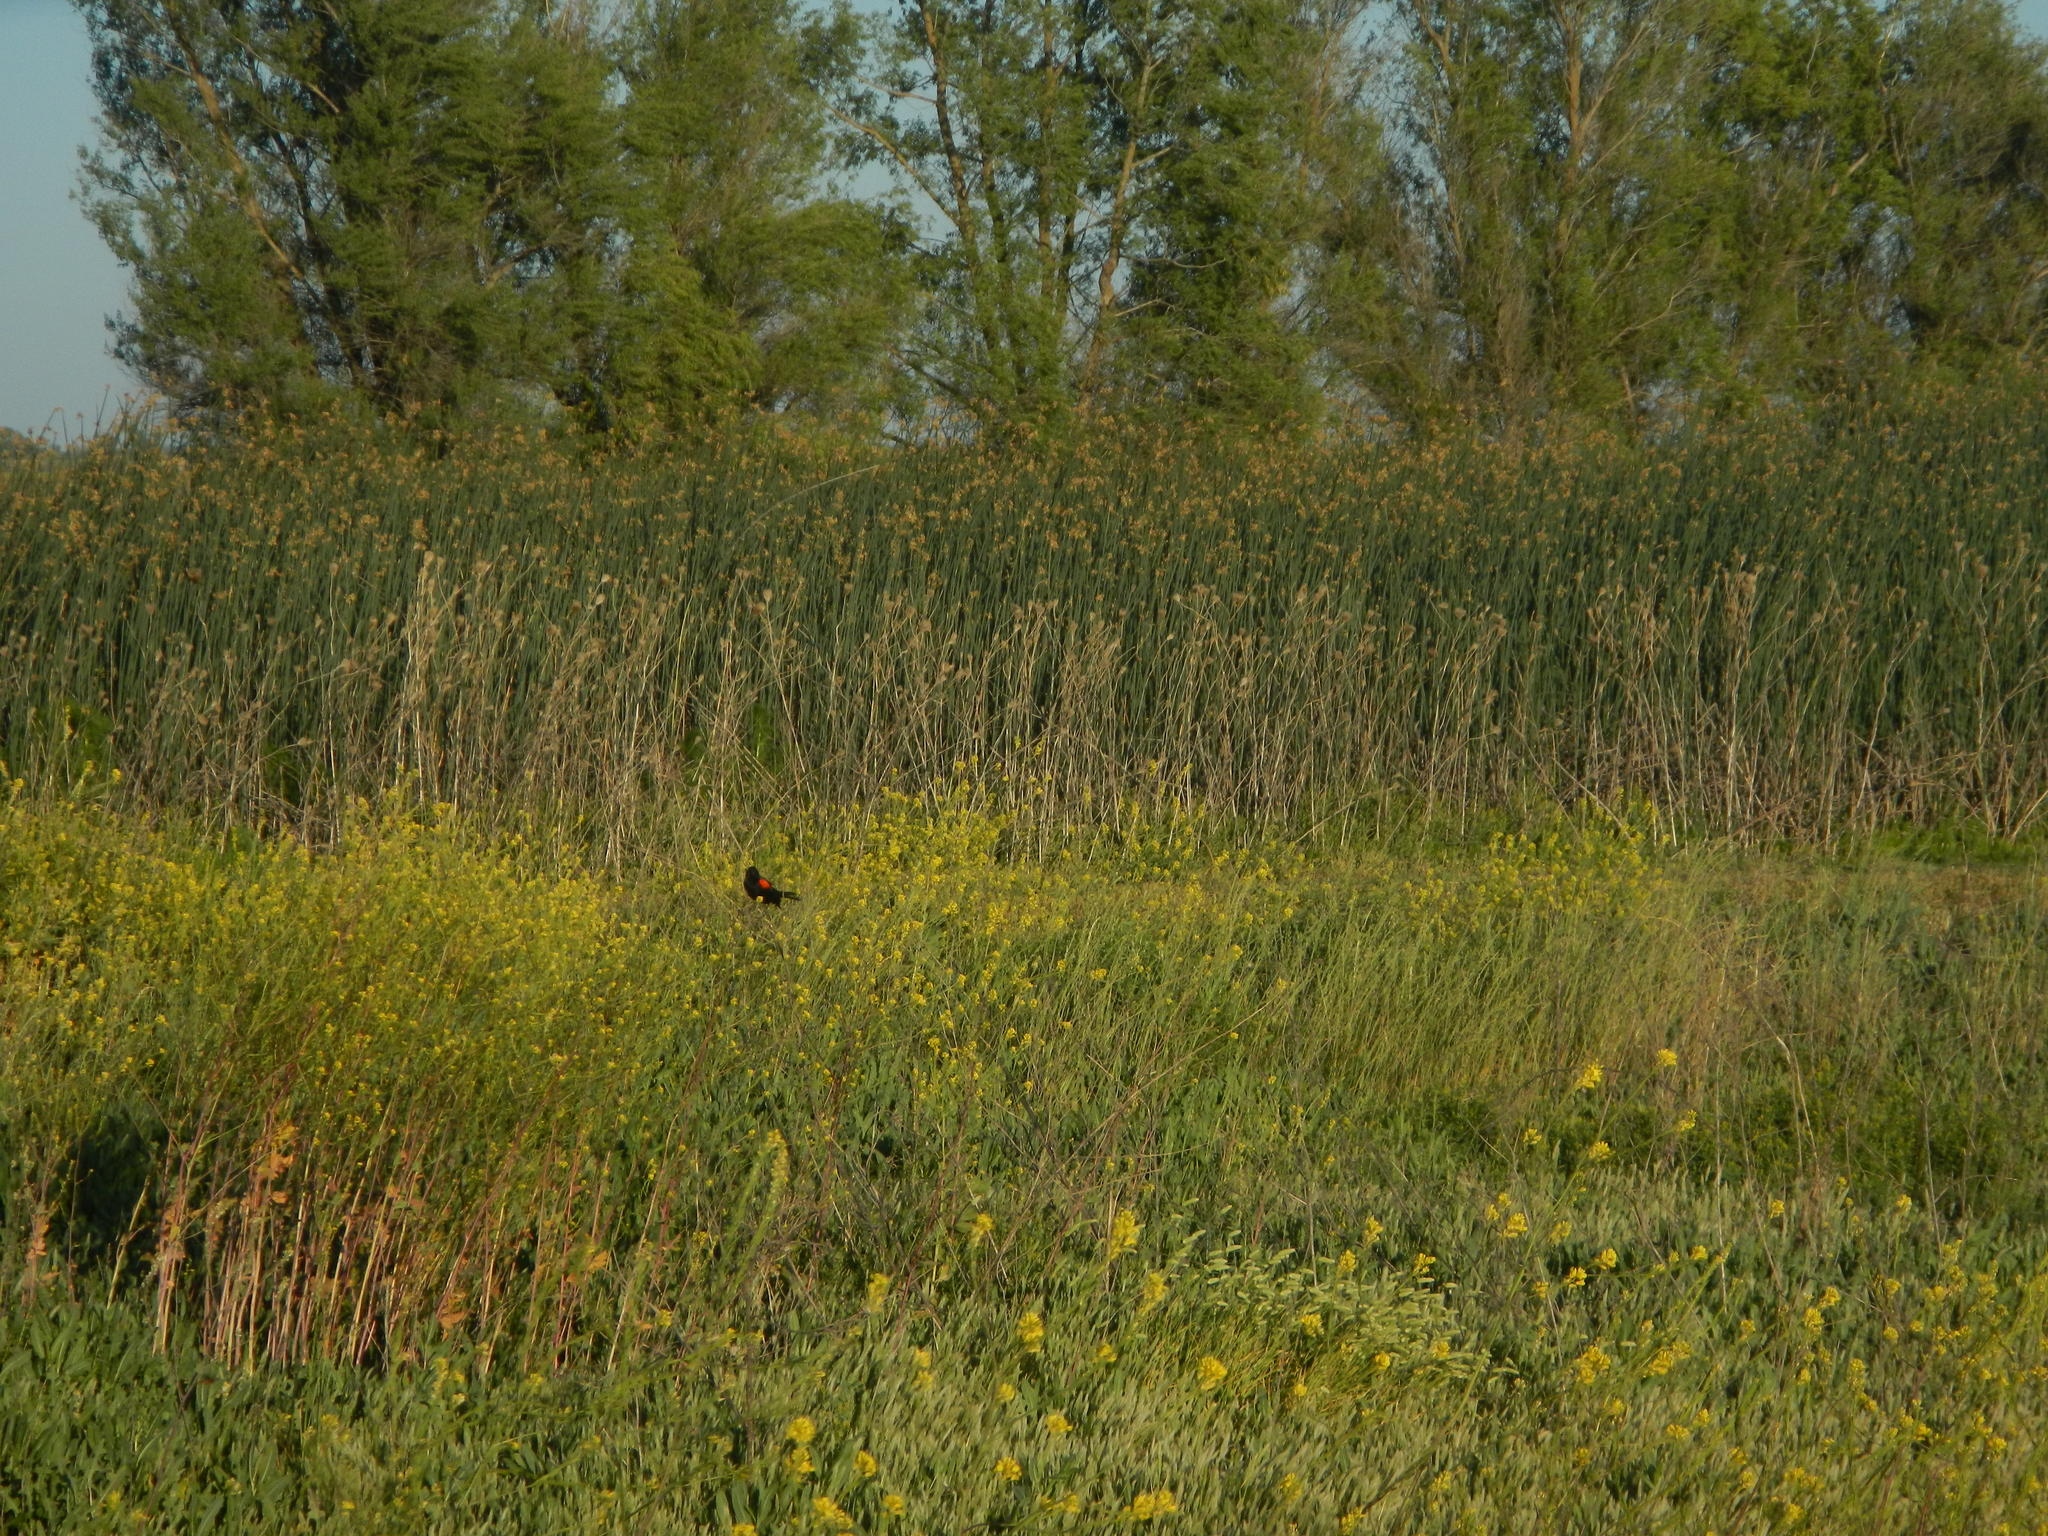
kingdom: Animalia
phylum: Chordata
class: Aves
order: Passeriformes
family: Icteridae
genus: Agelaius
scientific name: Agelaius phoeniceus
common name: Red-winged blackbird
